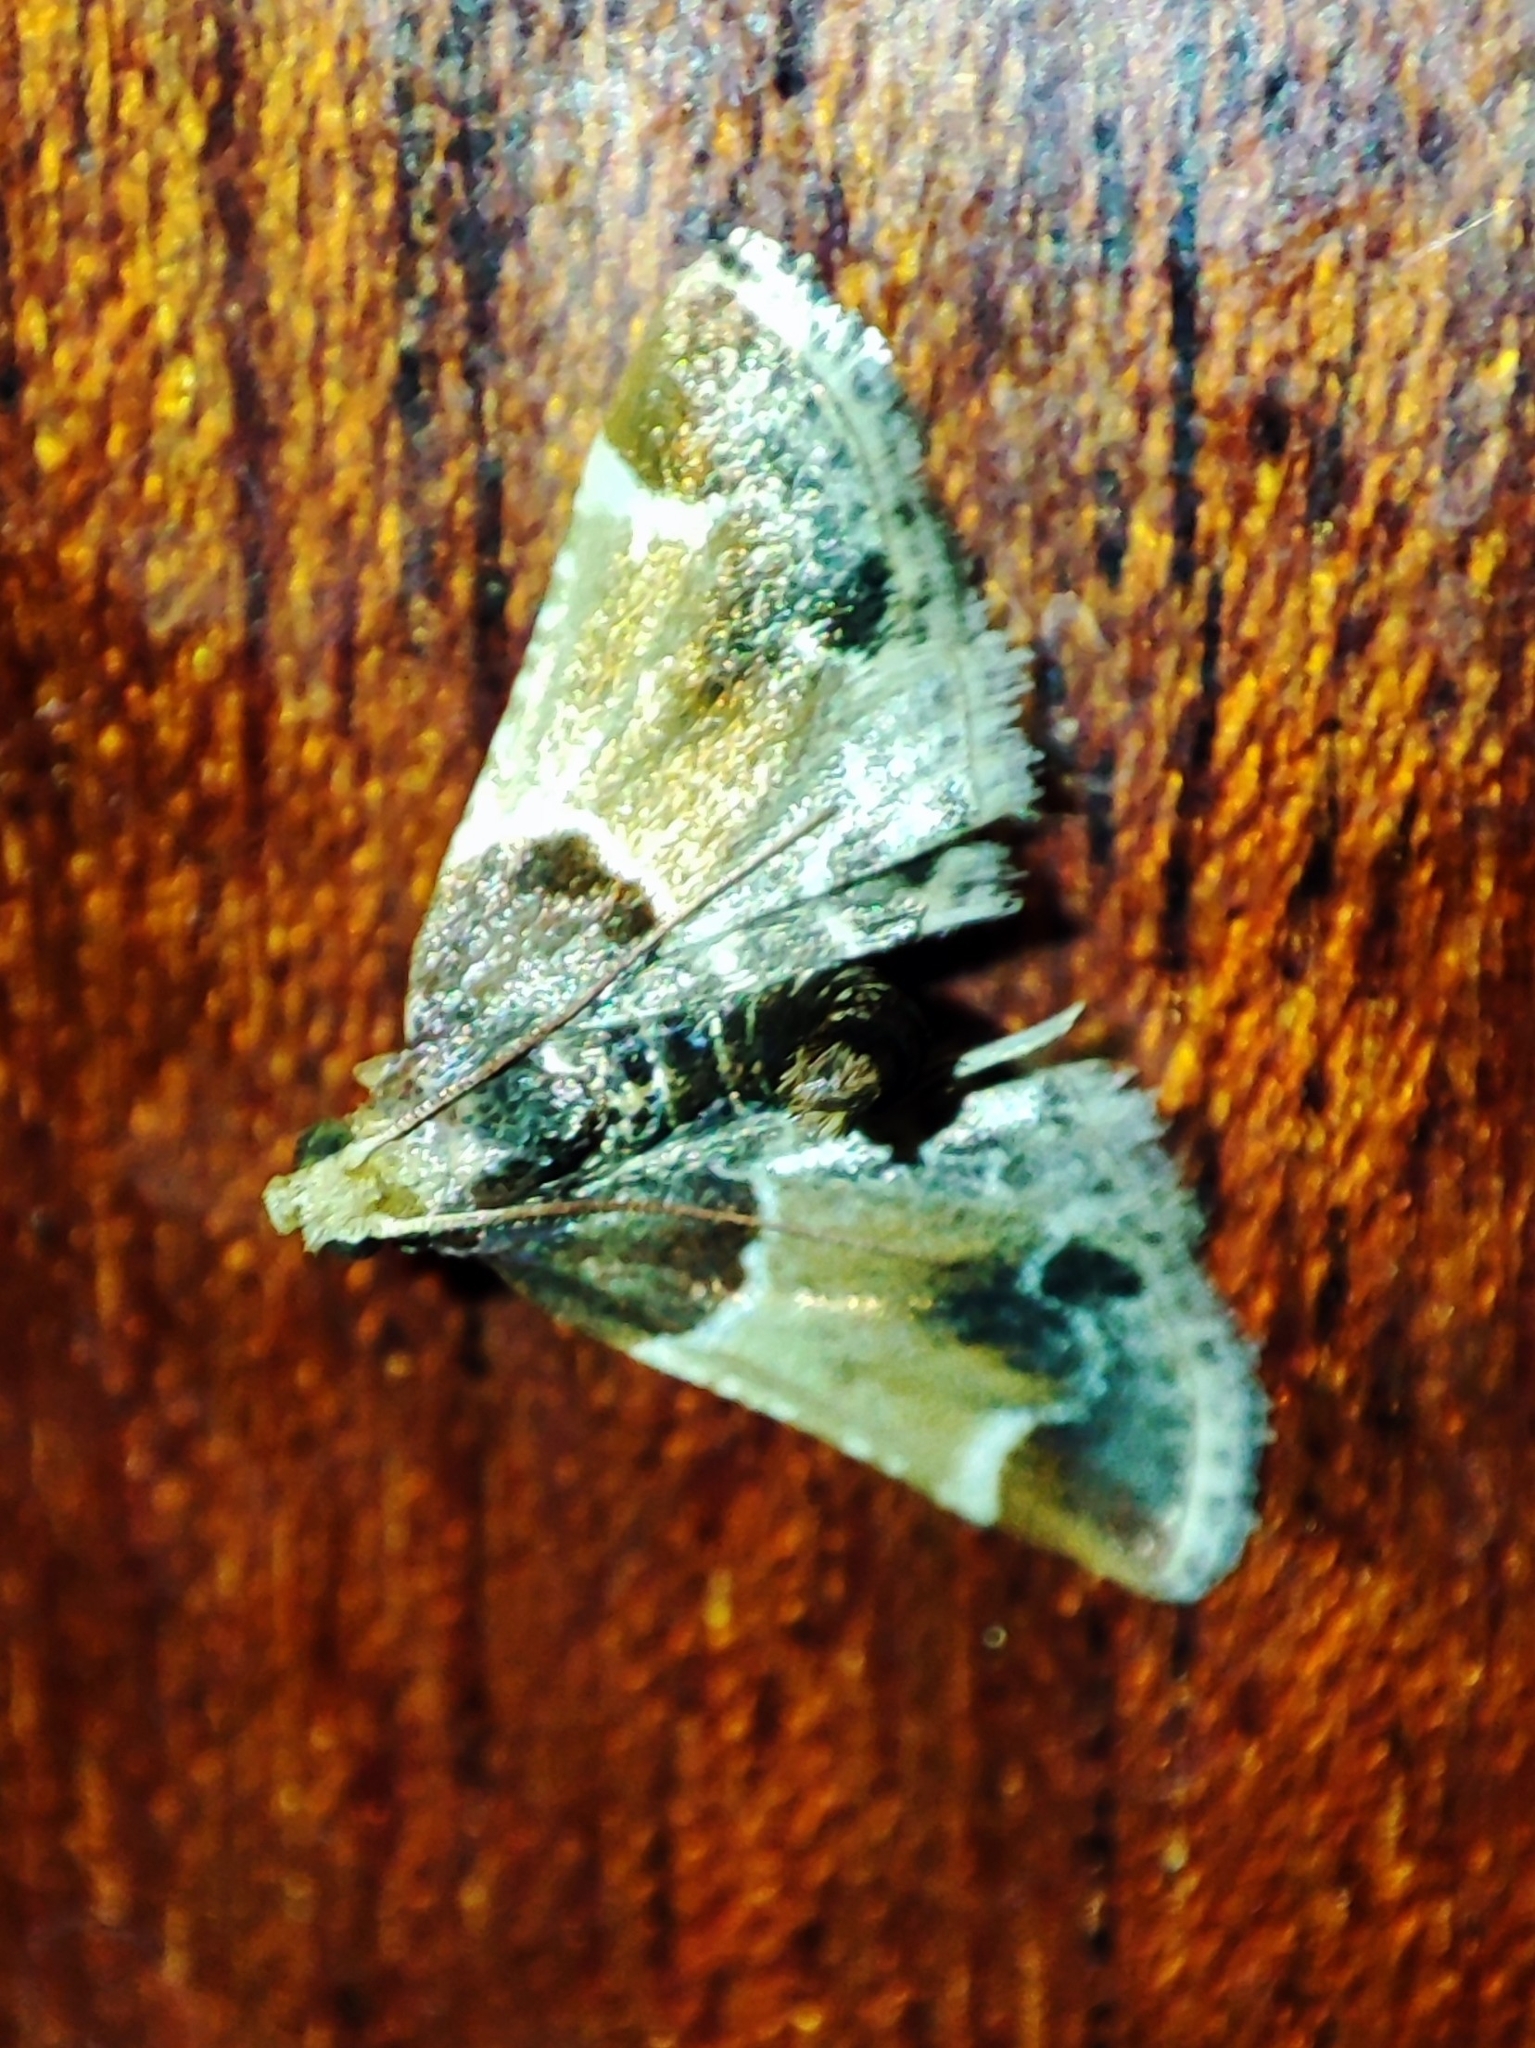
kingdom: Animalia
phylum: Arthropoda
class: Insecta
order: Lepidoptera
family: Pyralidae
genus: Pyralis
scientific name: Pyralis farinalis
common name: Meal moth
